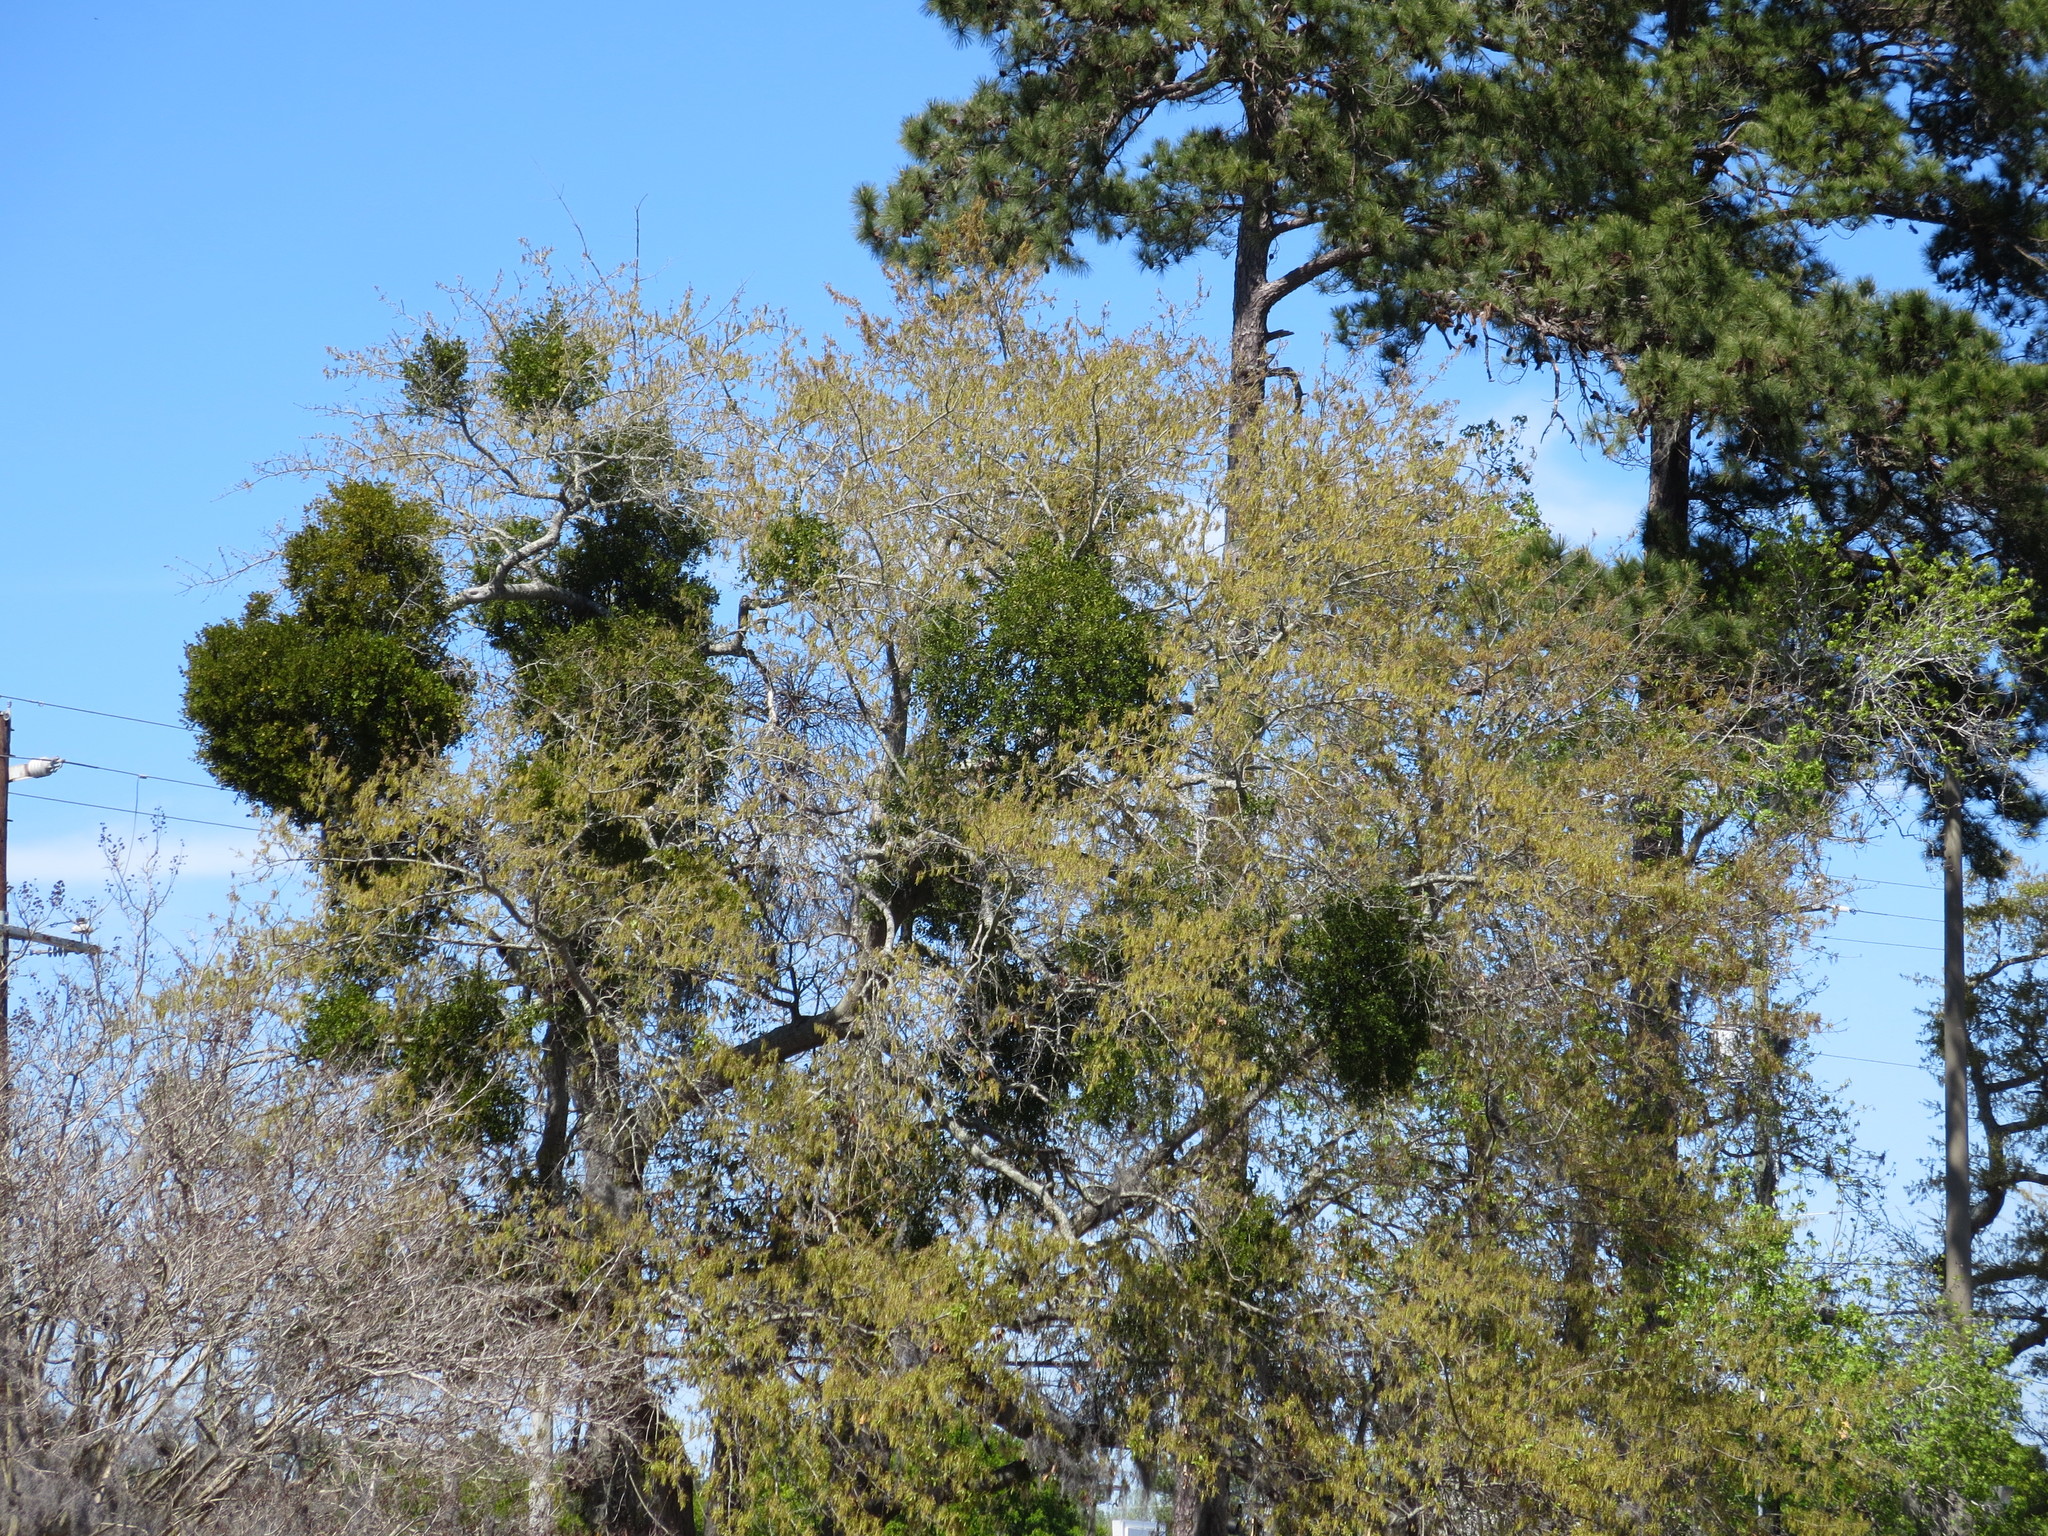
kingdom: Plantae
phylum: Tracheophyta
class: Magnoliopsida
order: Santalales
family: Viscaceae
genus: Phoradendron
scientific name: Phoradendron leucarpum
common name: Pacific mistletoe
